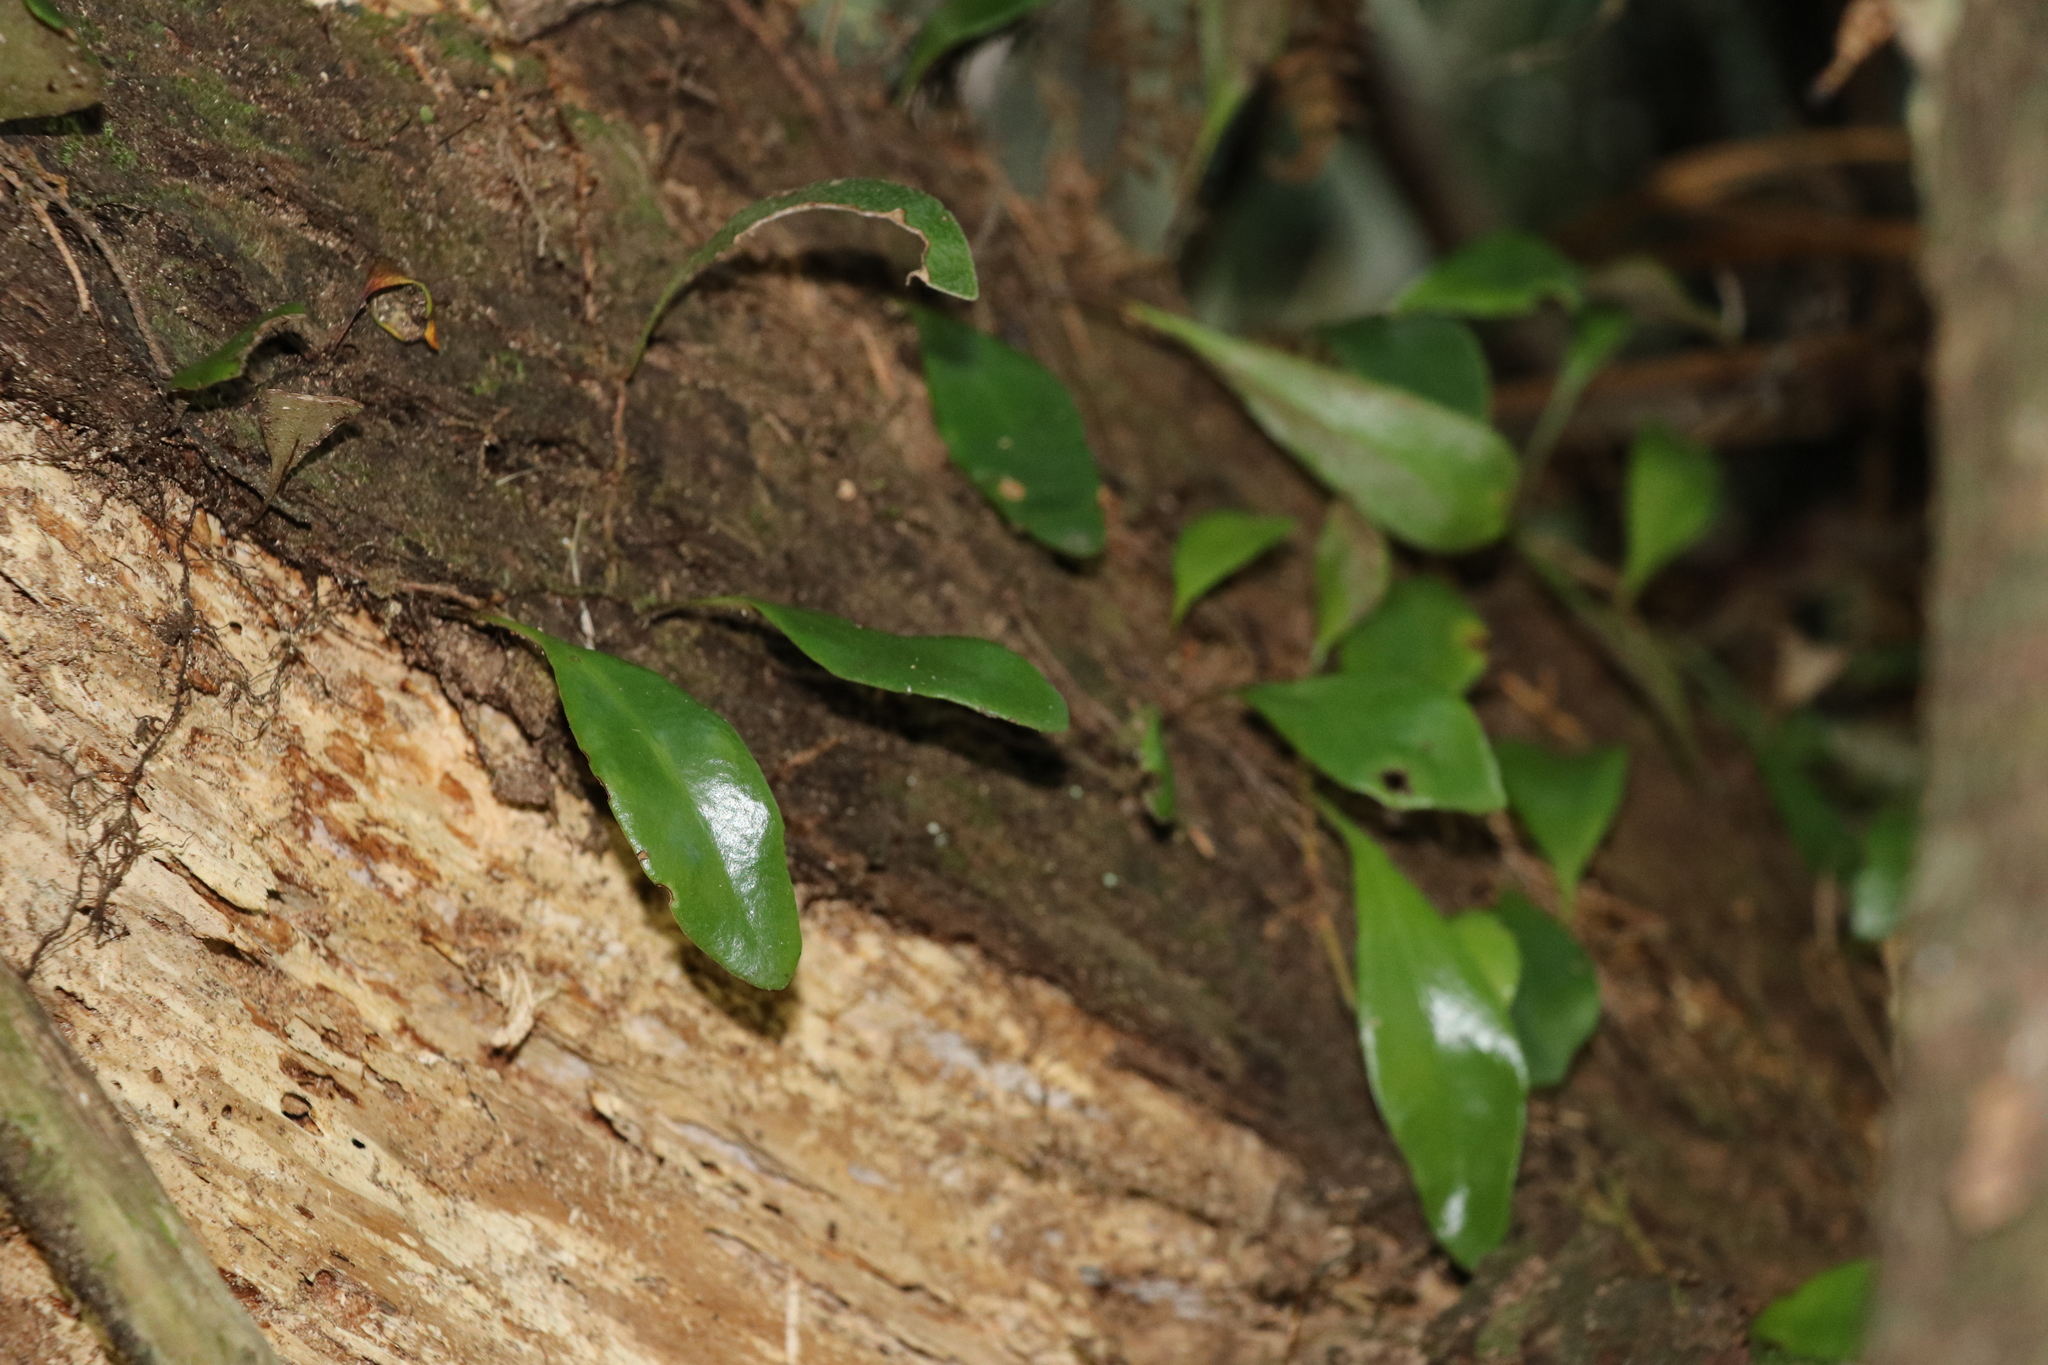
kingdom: Plantae
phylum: Tracheophyta
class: Polypodiopsida
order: Polypodiales
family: Polypodiaceae
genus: Pyrrosia
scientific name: Pyrrosia eleagnifolia
